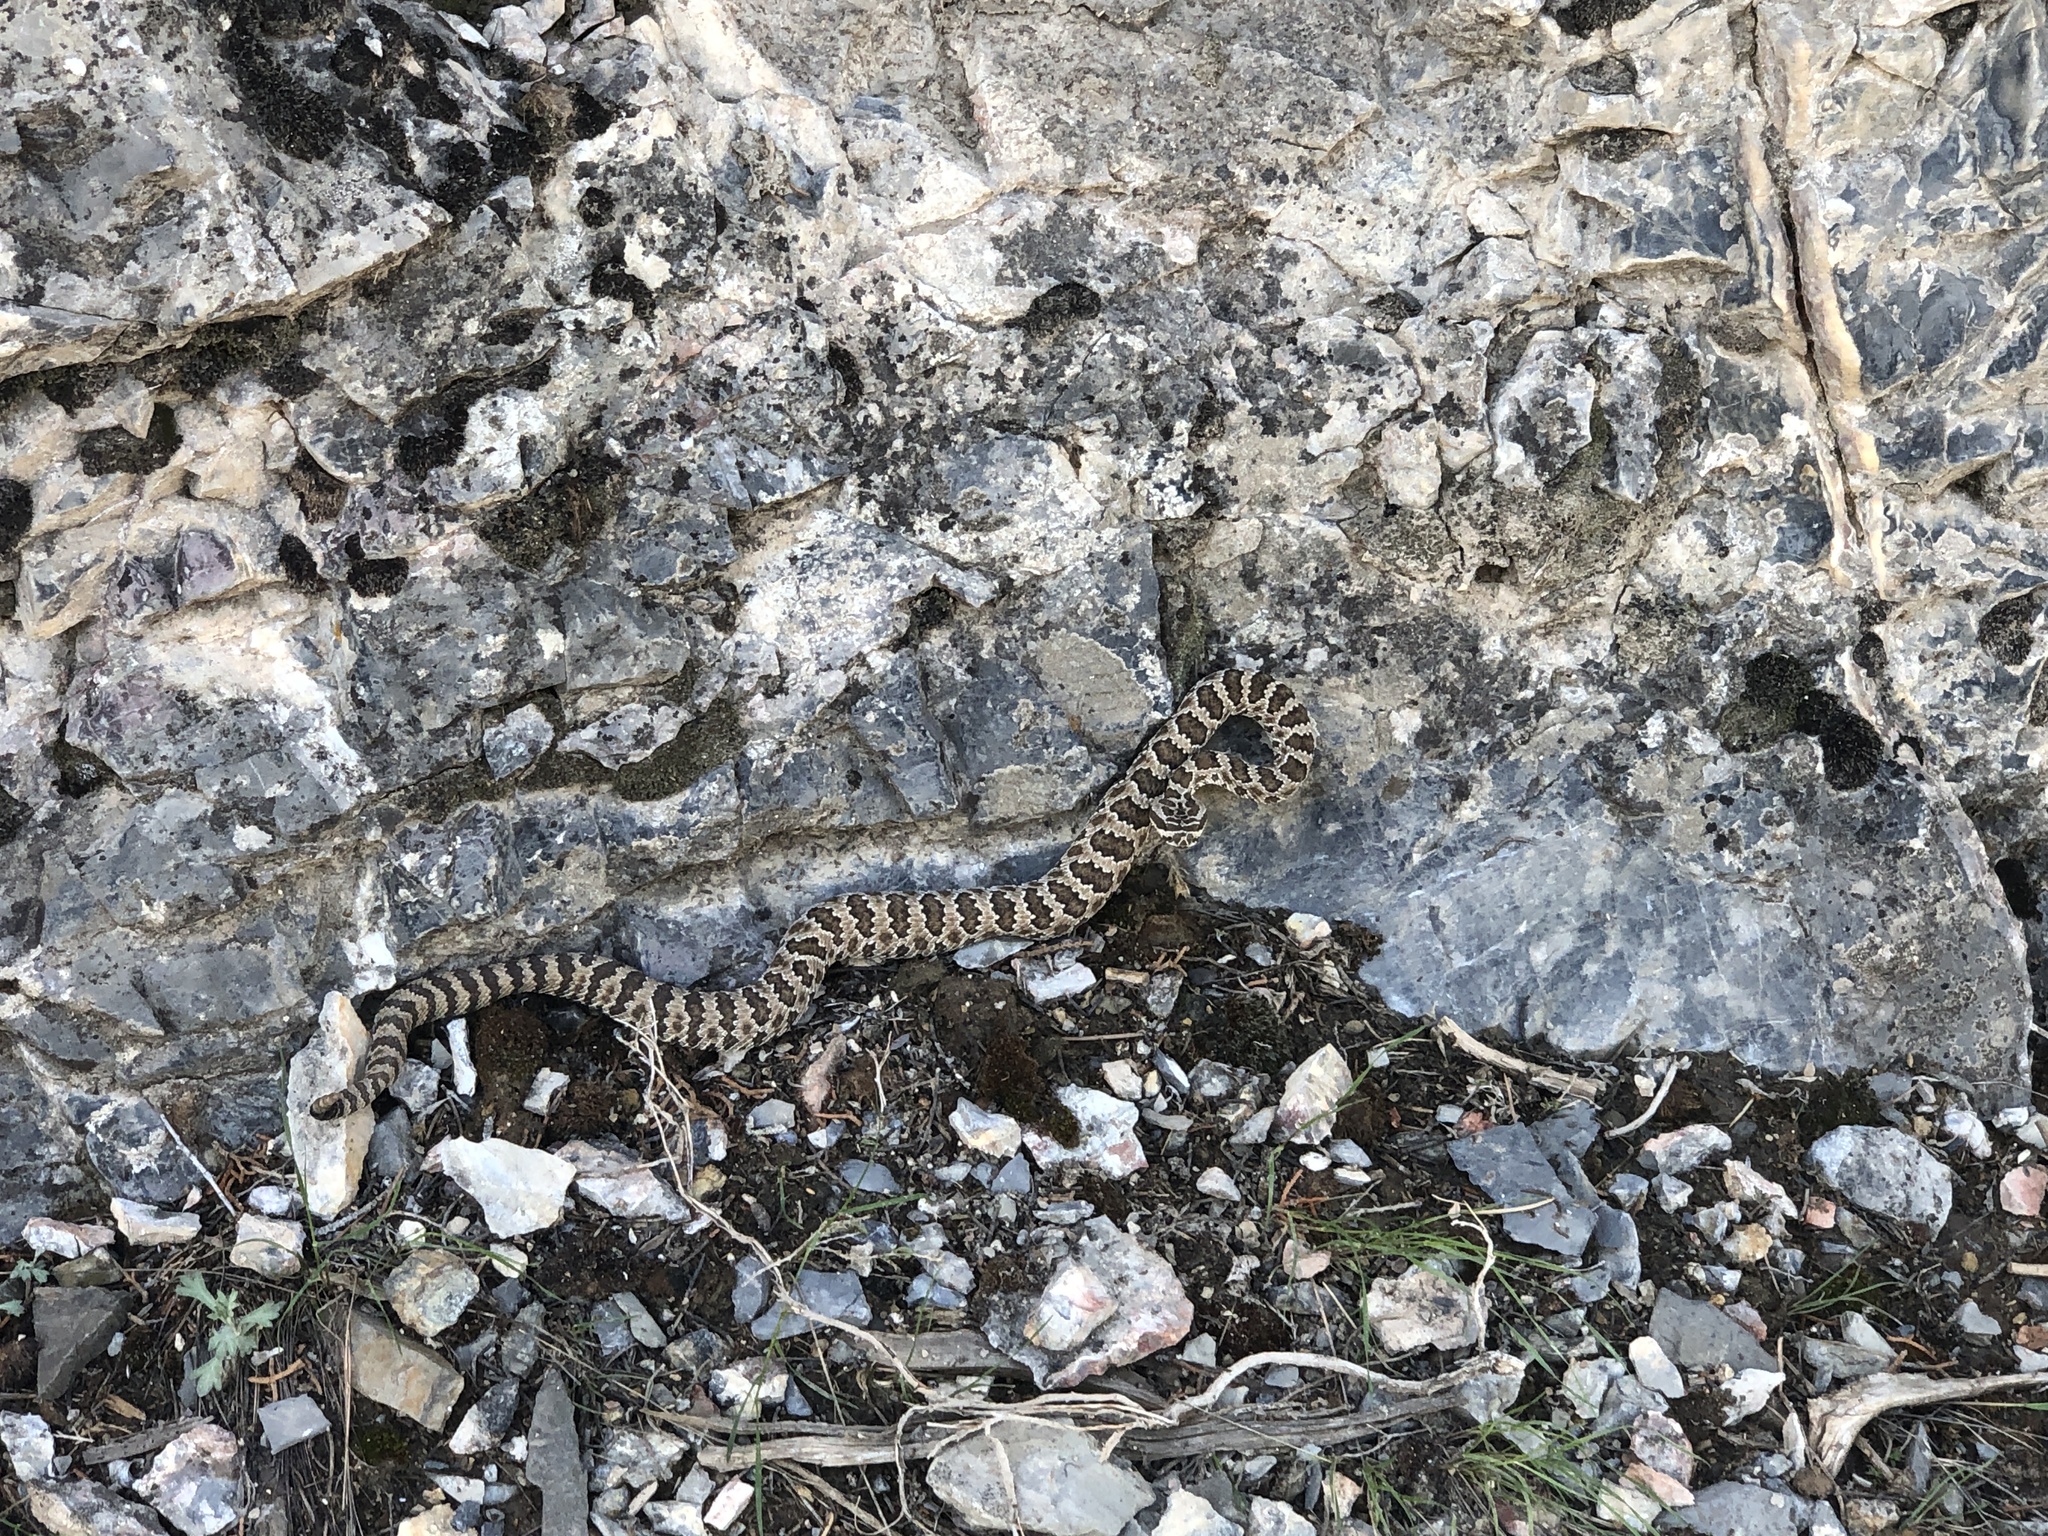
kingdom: Animalia
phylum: Chordata
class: Squamata
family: Viperidae
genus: Crotalus
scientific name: Crotalus oreganus
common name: Abyssus
